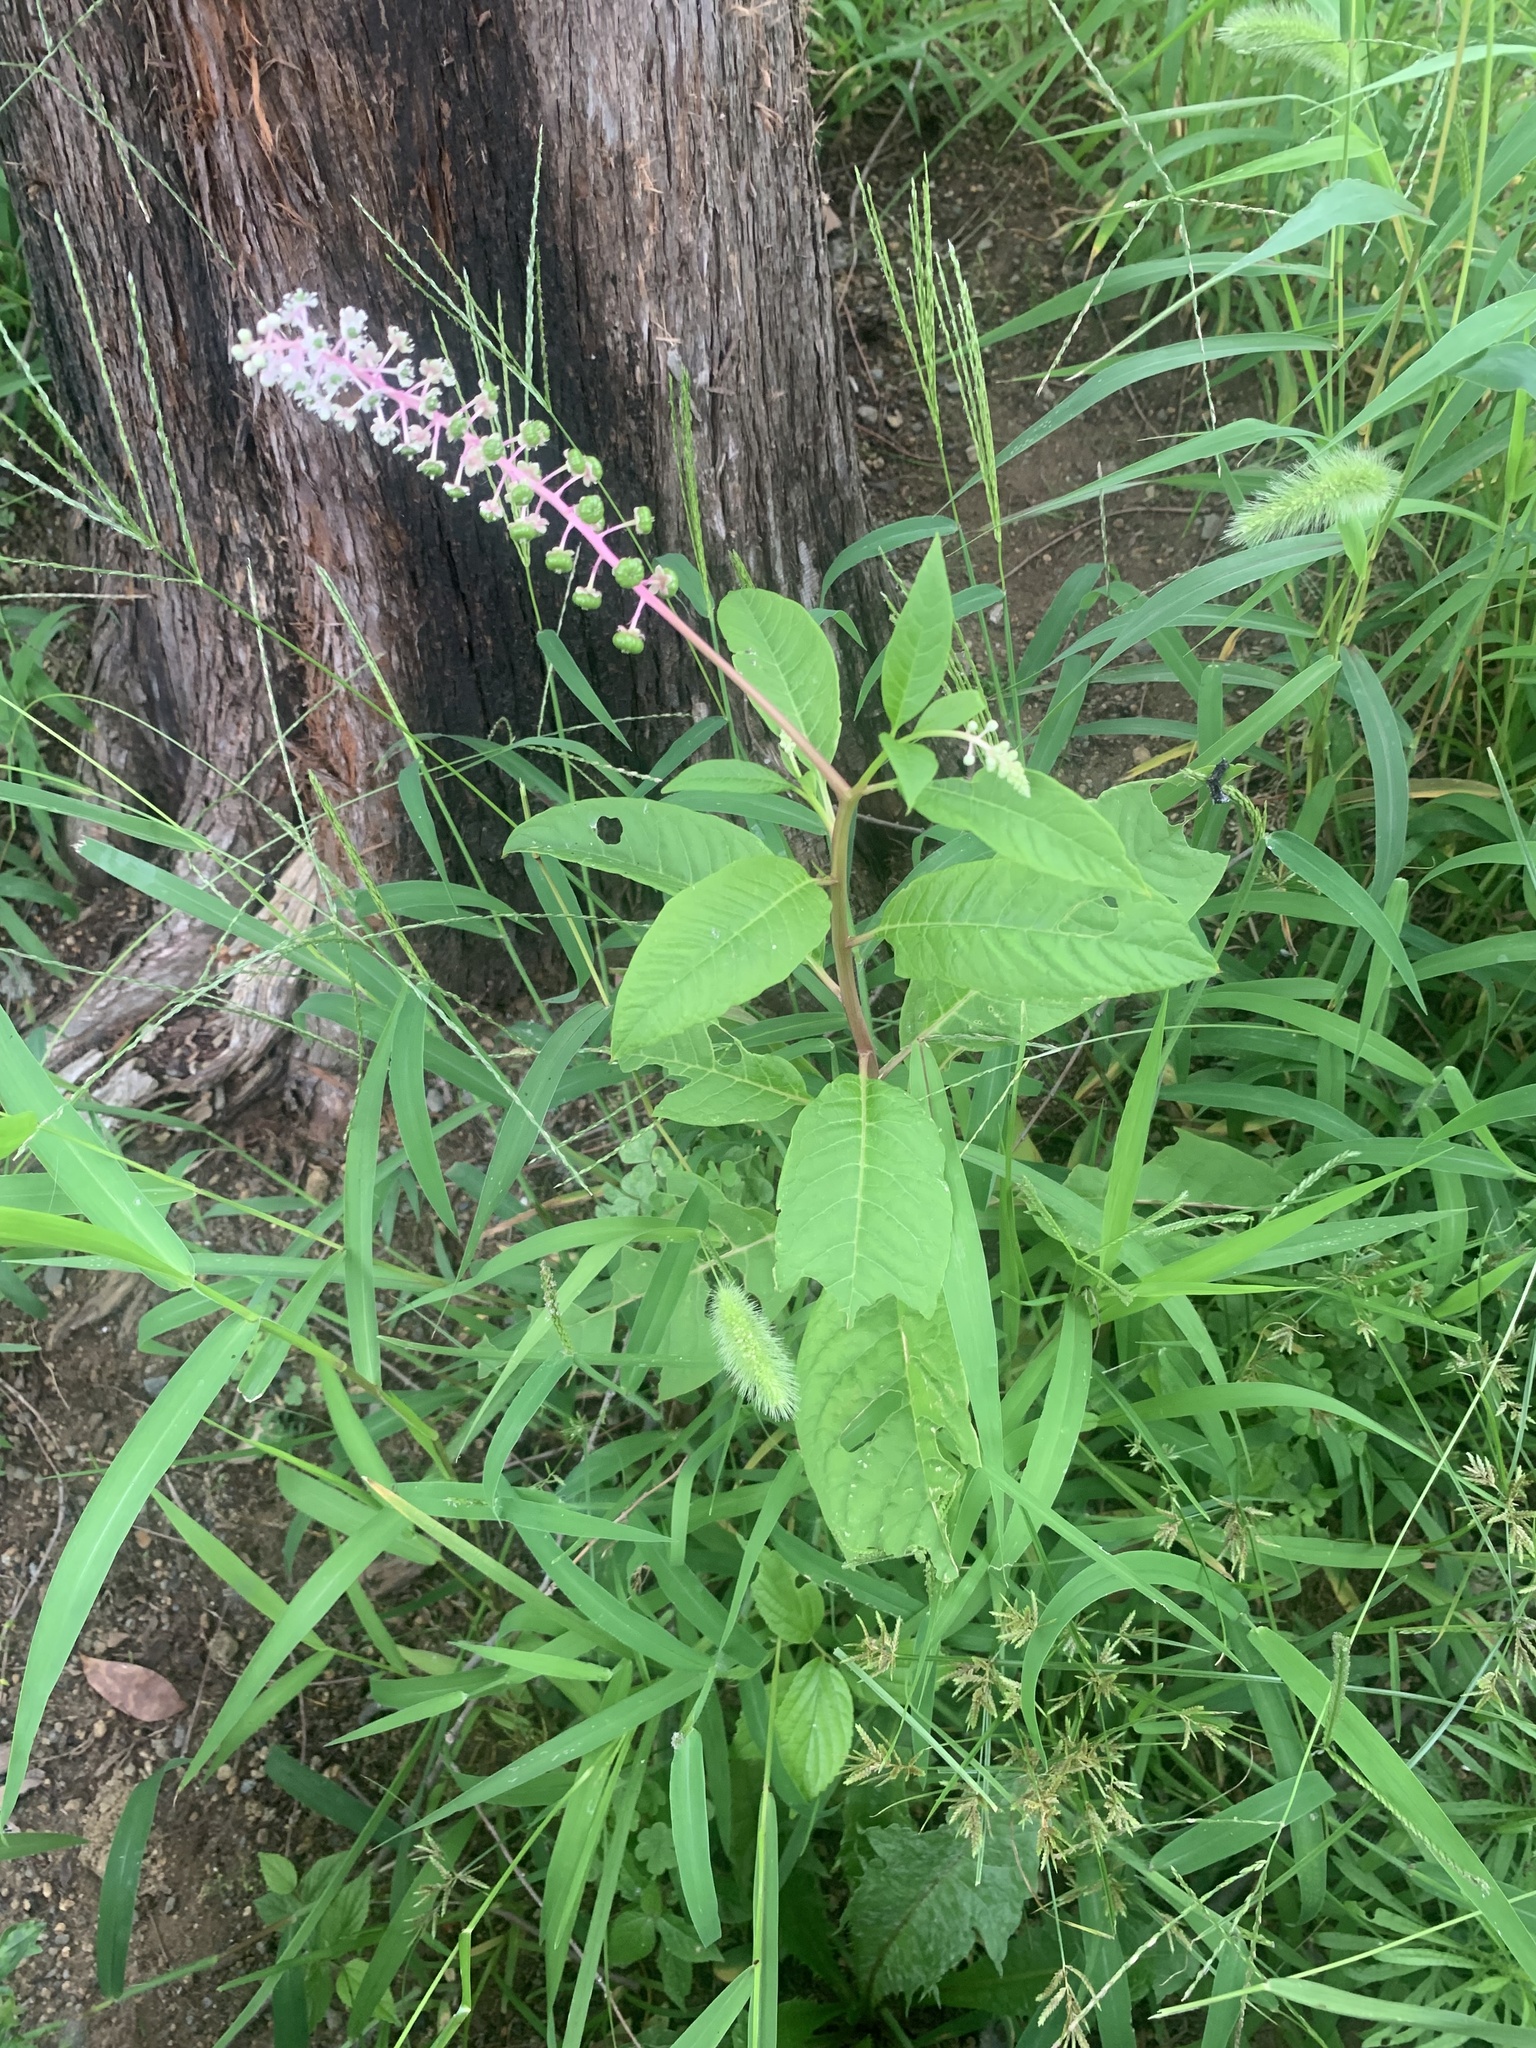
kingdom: Plantae
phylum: Tracheophyta
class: Magnoliopsida
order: Caryophyllales
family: Phytolaccaceae
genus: Phytolacca
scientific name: Phytolacca americana
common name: American pokeweed
